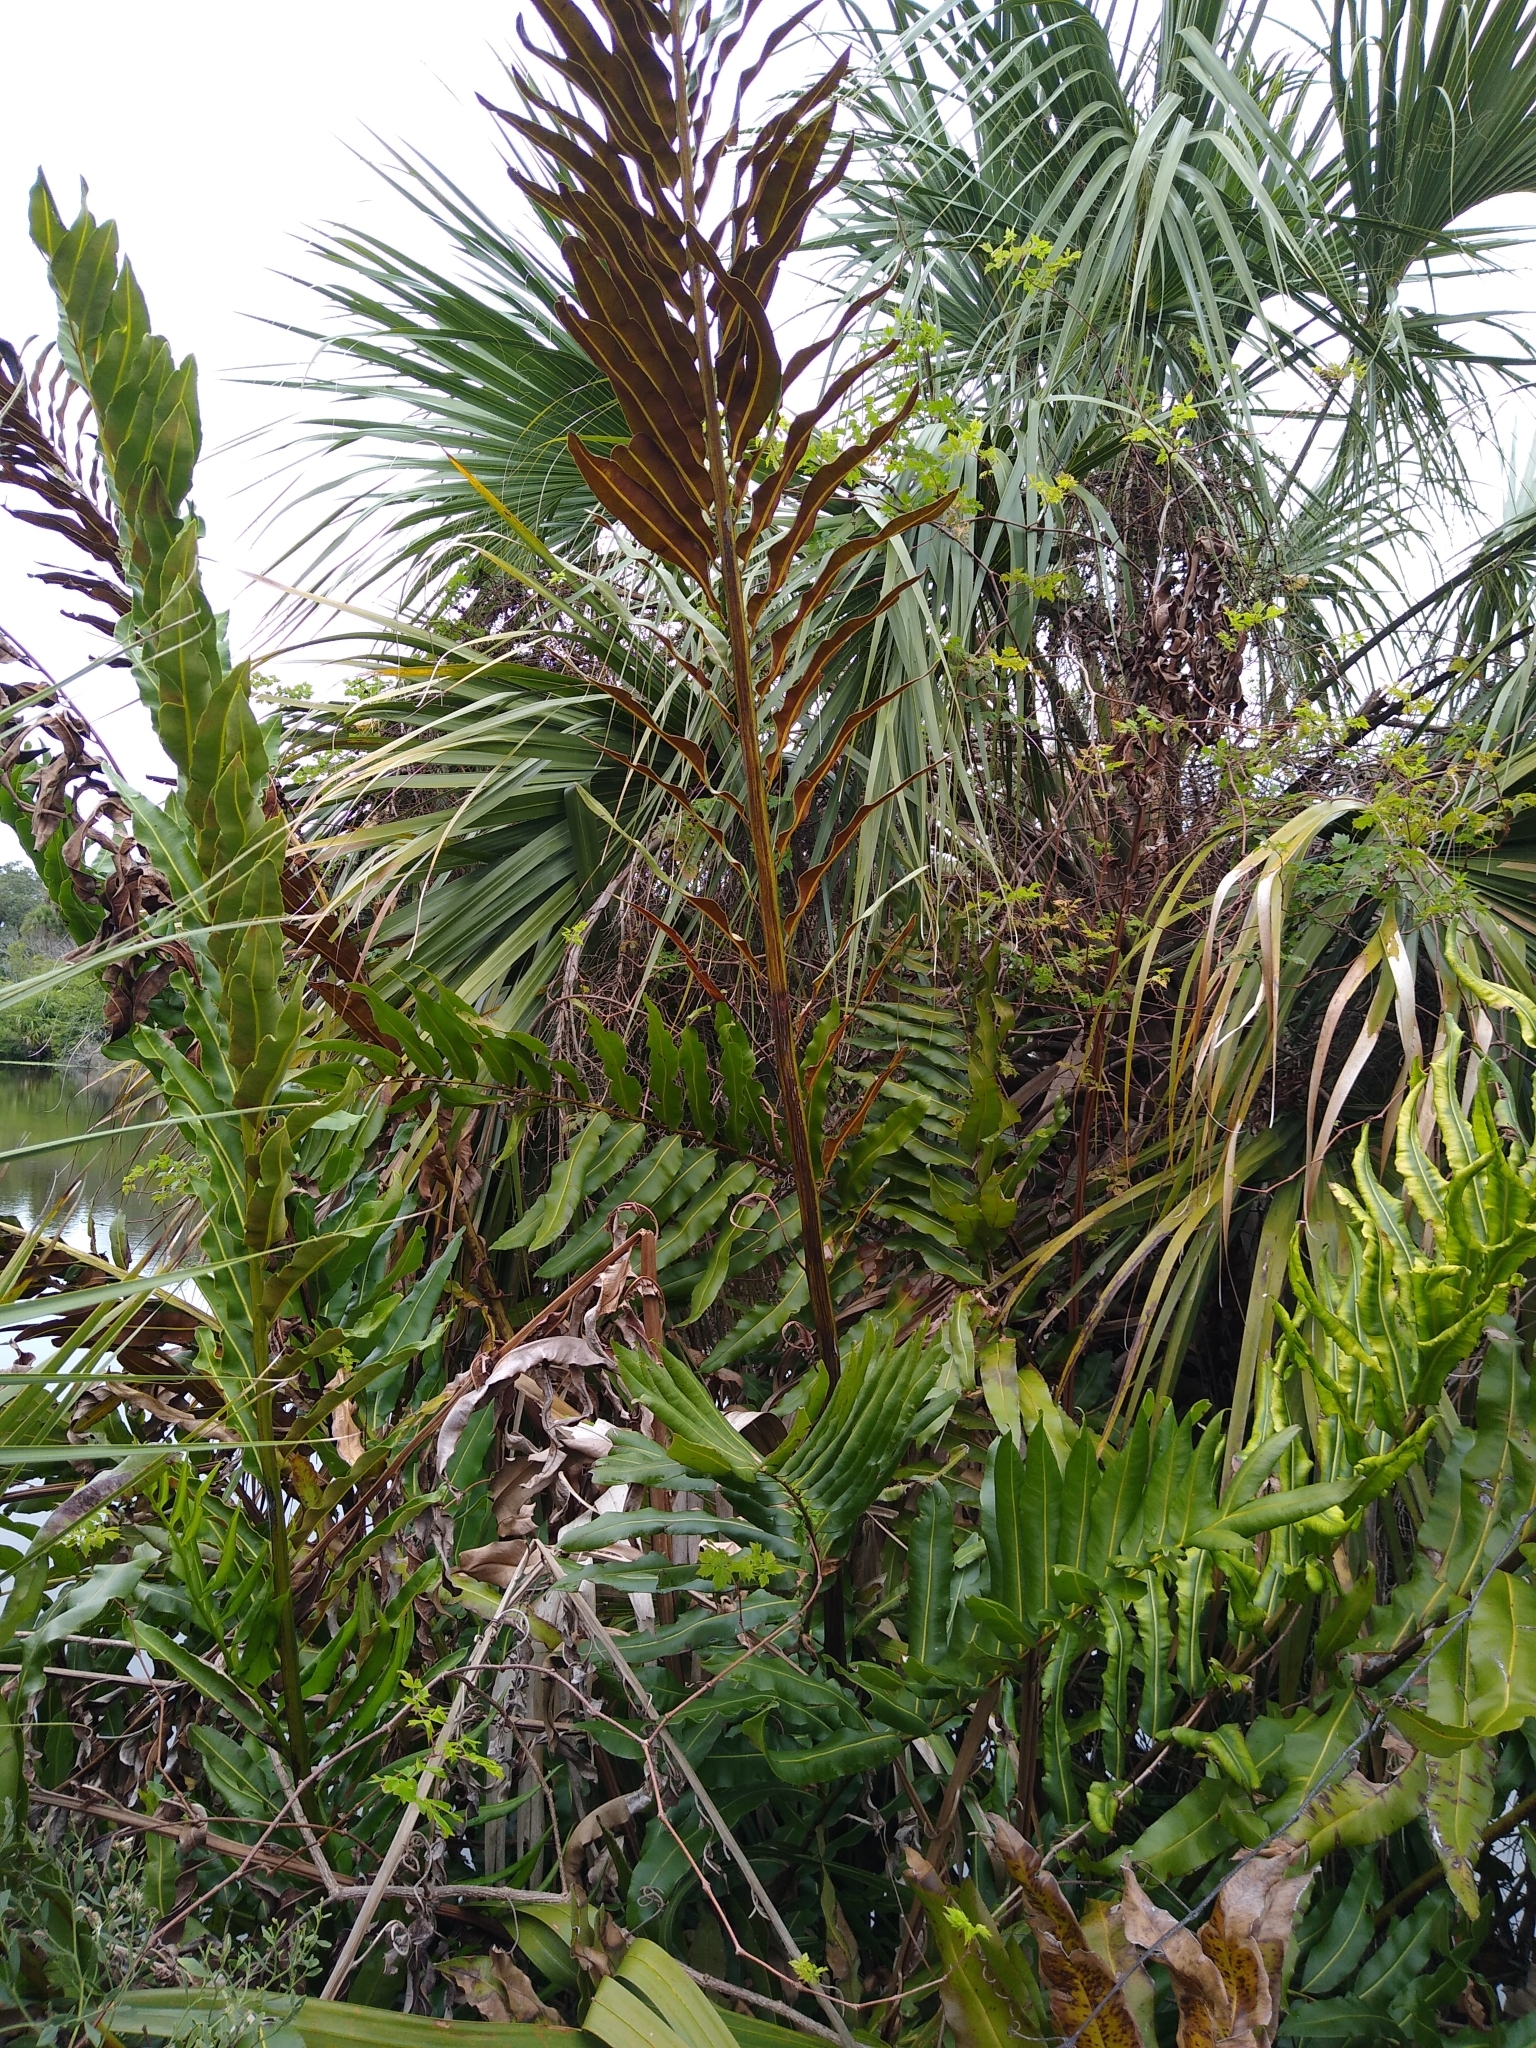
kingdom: Plantae
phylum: Tracheophyta
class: Polypodiopsida
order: Polypodiales
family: Pteridaceae
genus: Acrostichum
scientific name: Acrostichum danaeifolium
